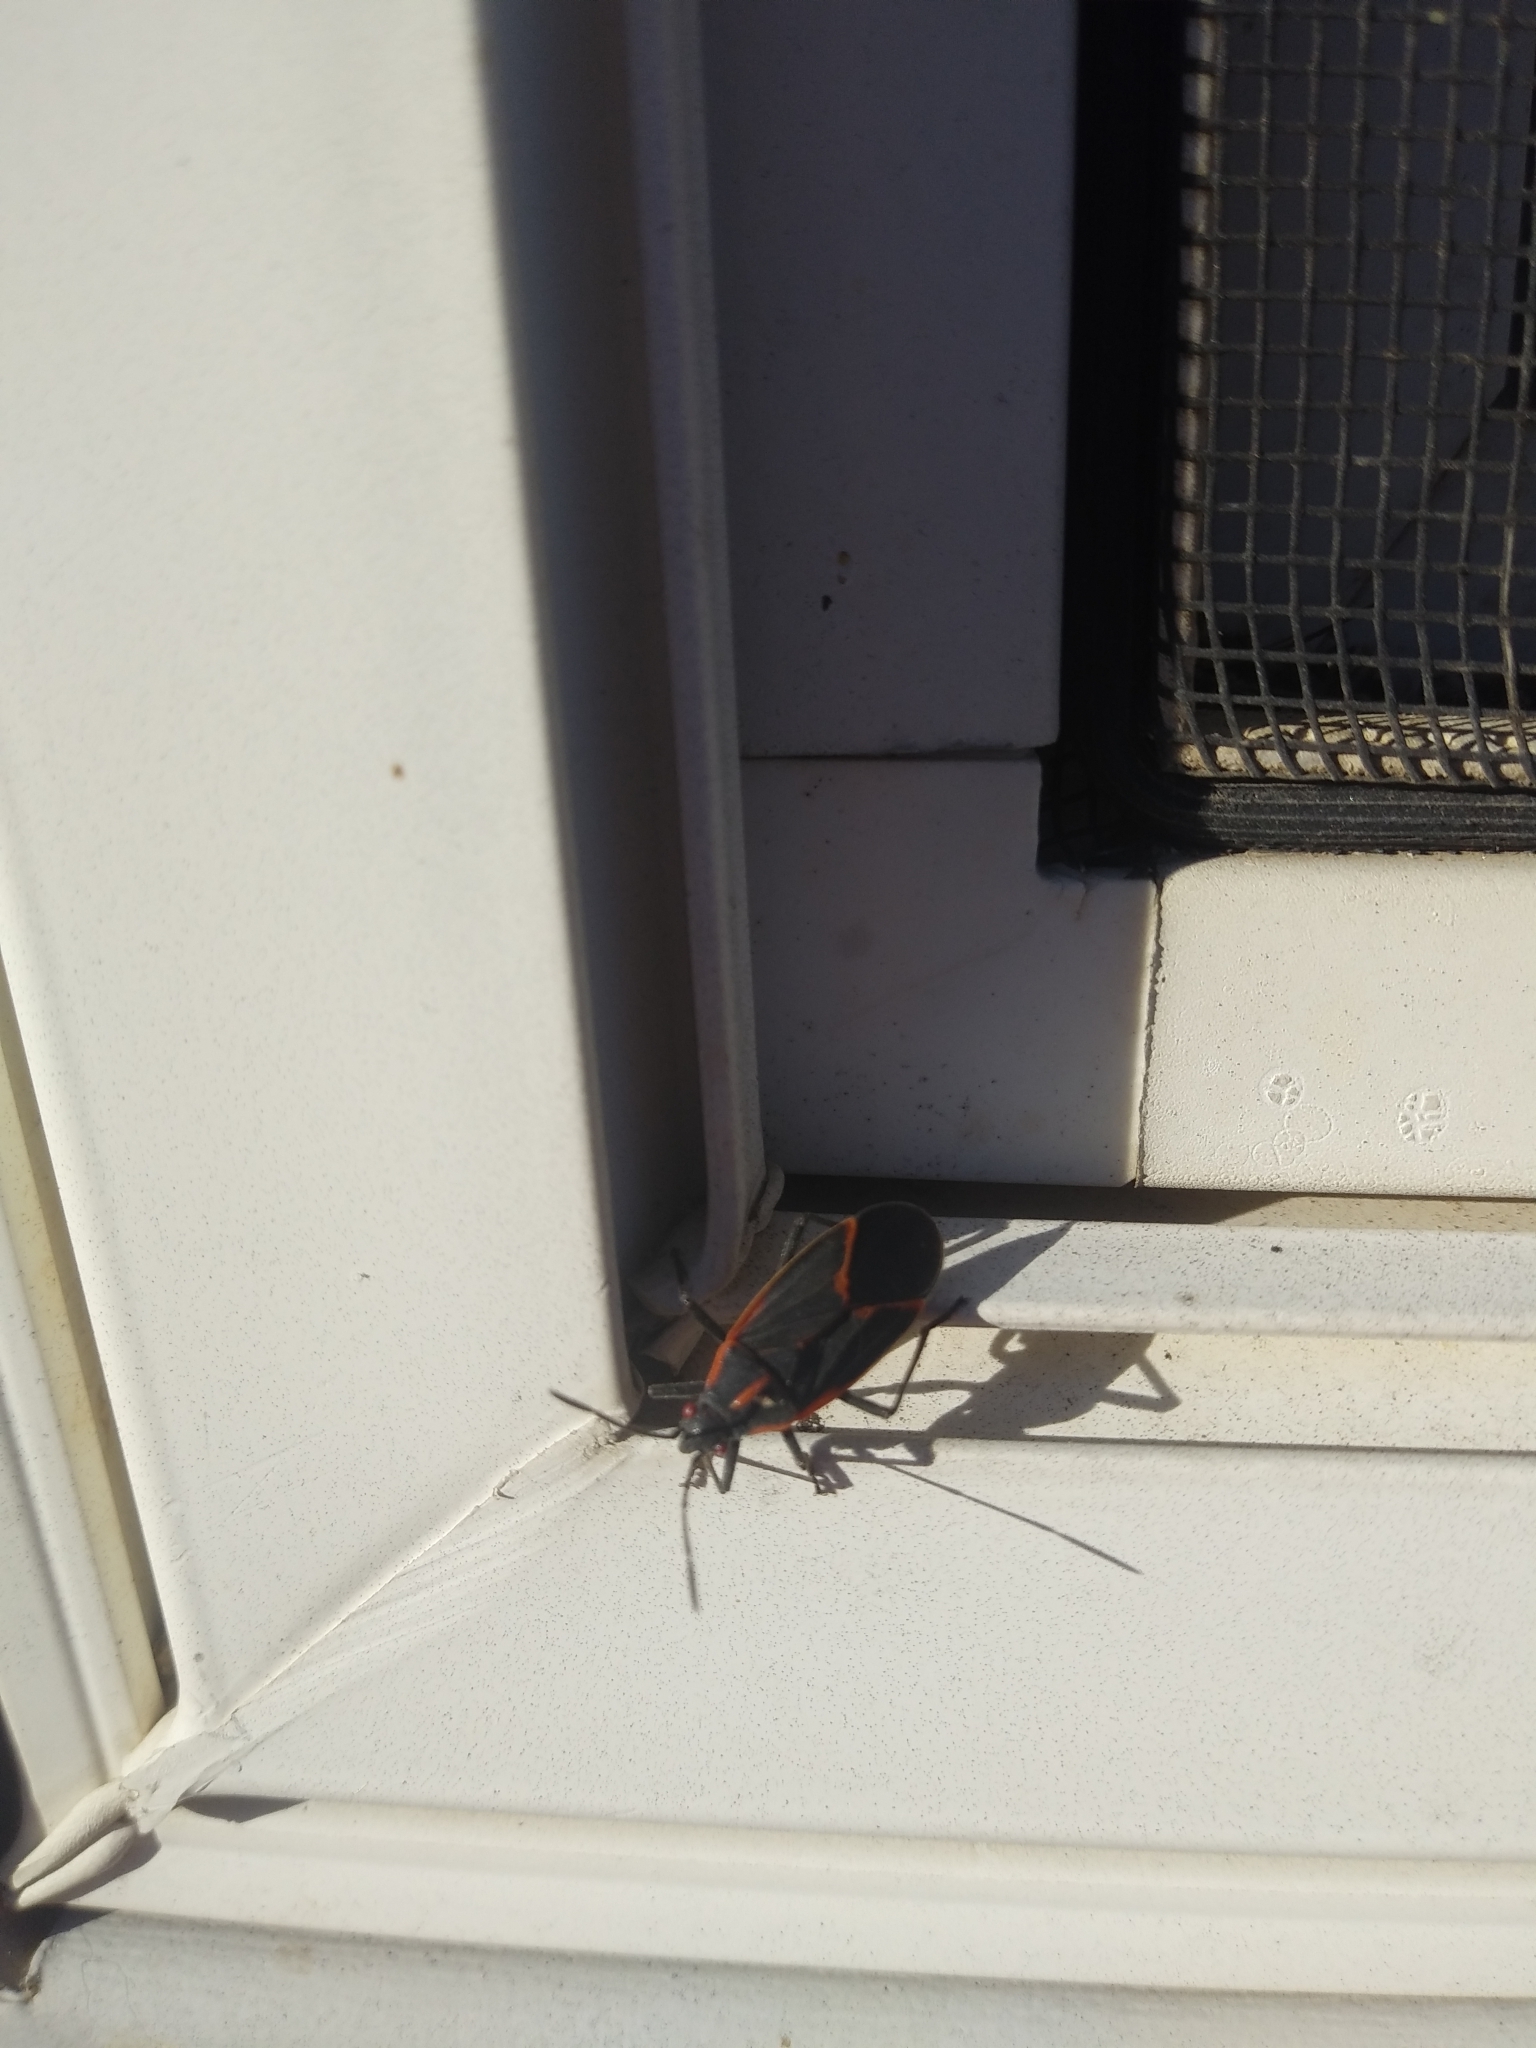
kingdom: Animalia
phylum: Arthropoda
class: Insecta
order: Hemiptera
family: Rhopalidae
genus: Boisea
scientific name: Boisea trivittata
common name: Boxelder bug
